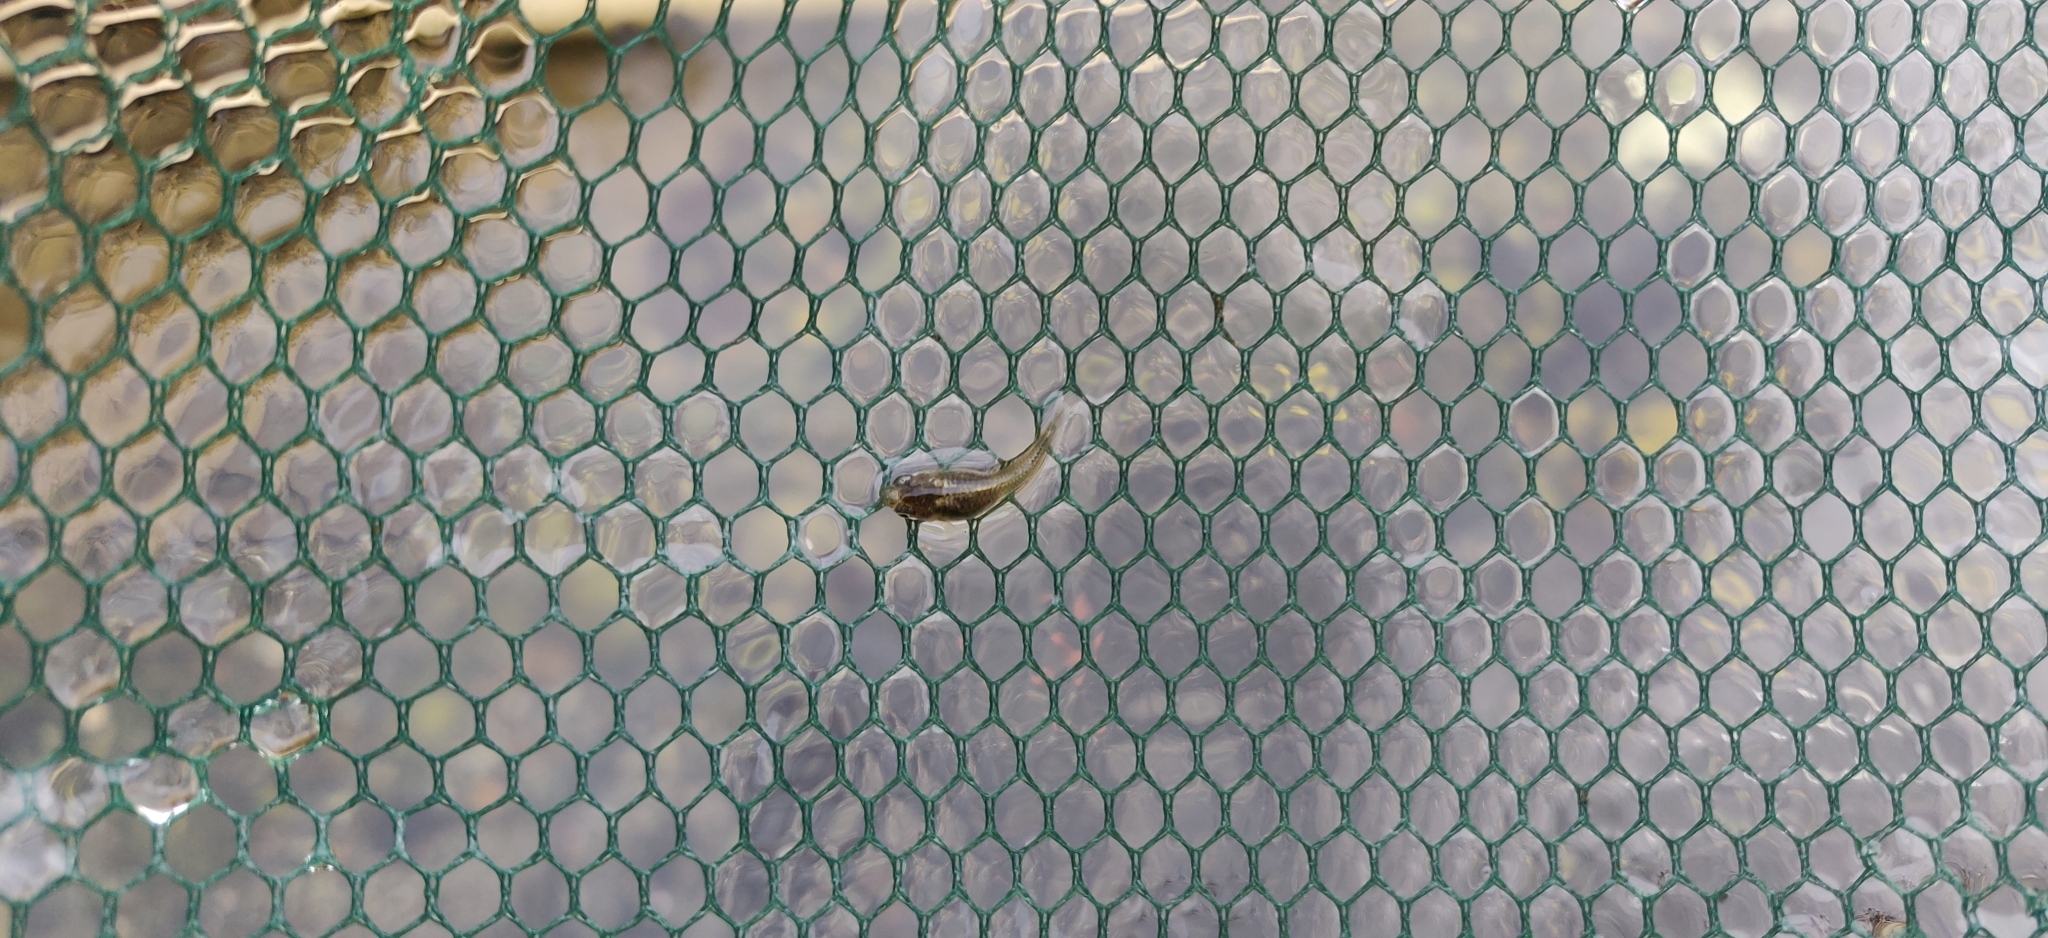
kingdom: Animalia
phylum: Chordata
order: Cyprinodontiformes
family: Poeciliidae
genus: Poecilia
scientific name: Poecilia reticulata
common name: Guppy
